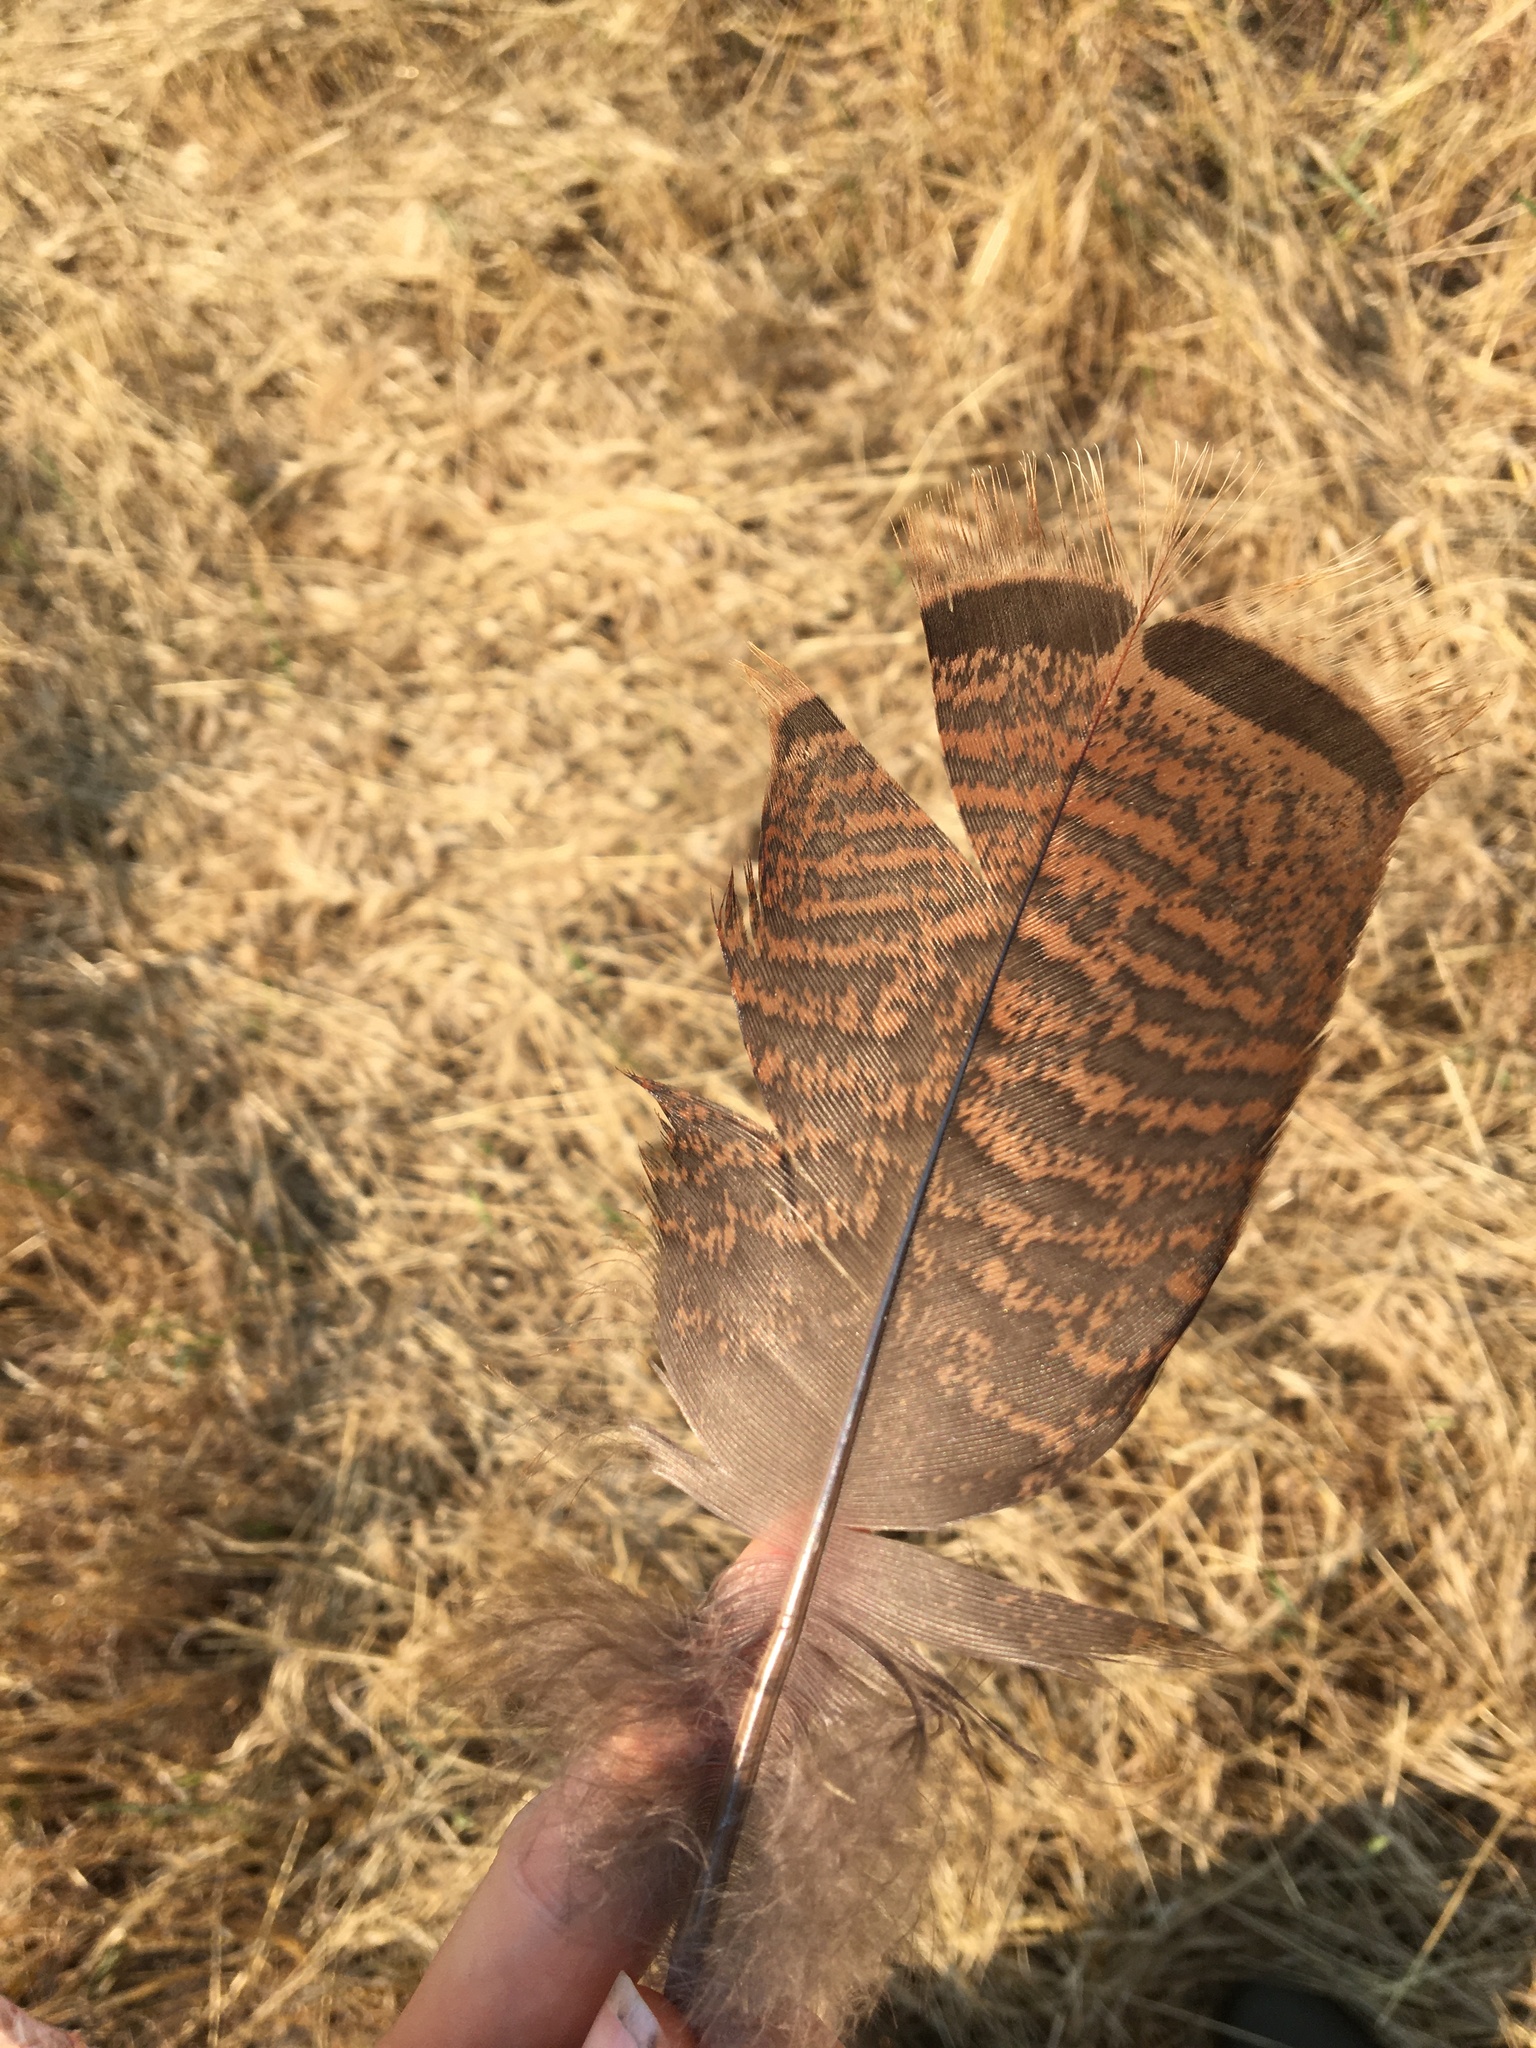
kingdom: Animalia
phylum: Chordata
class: Aves
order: Galliformes
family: Phasianidae
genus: Meleagris
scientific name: Meleagris gallopavo
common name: Wild turkey
